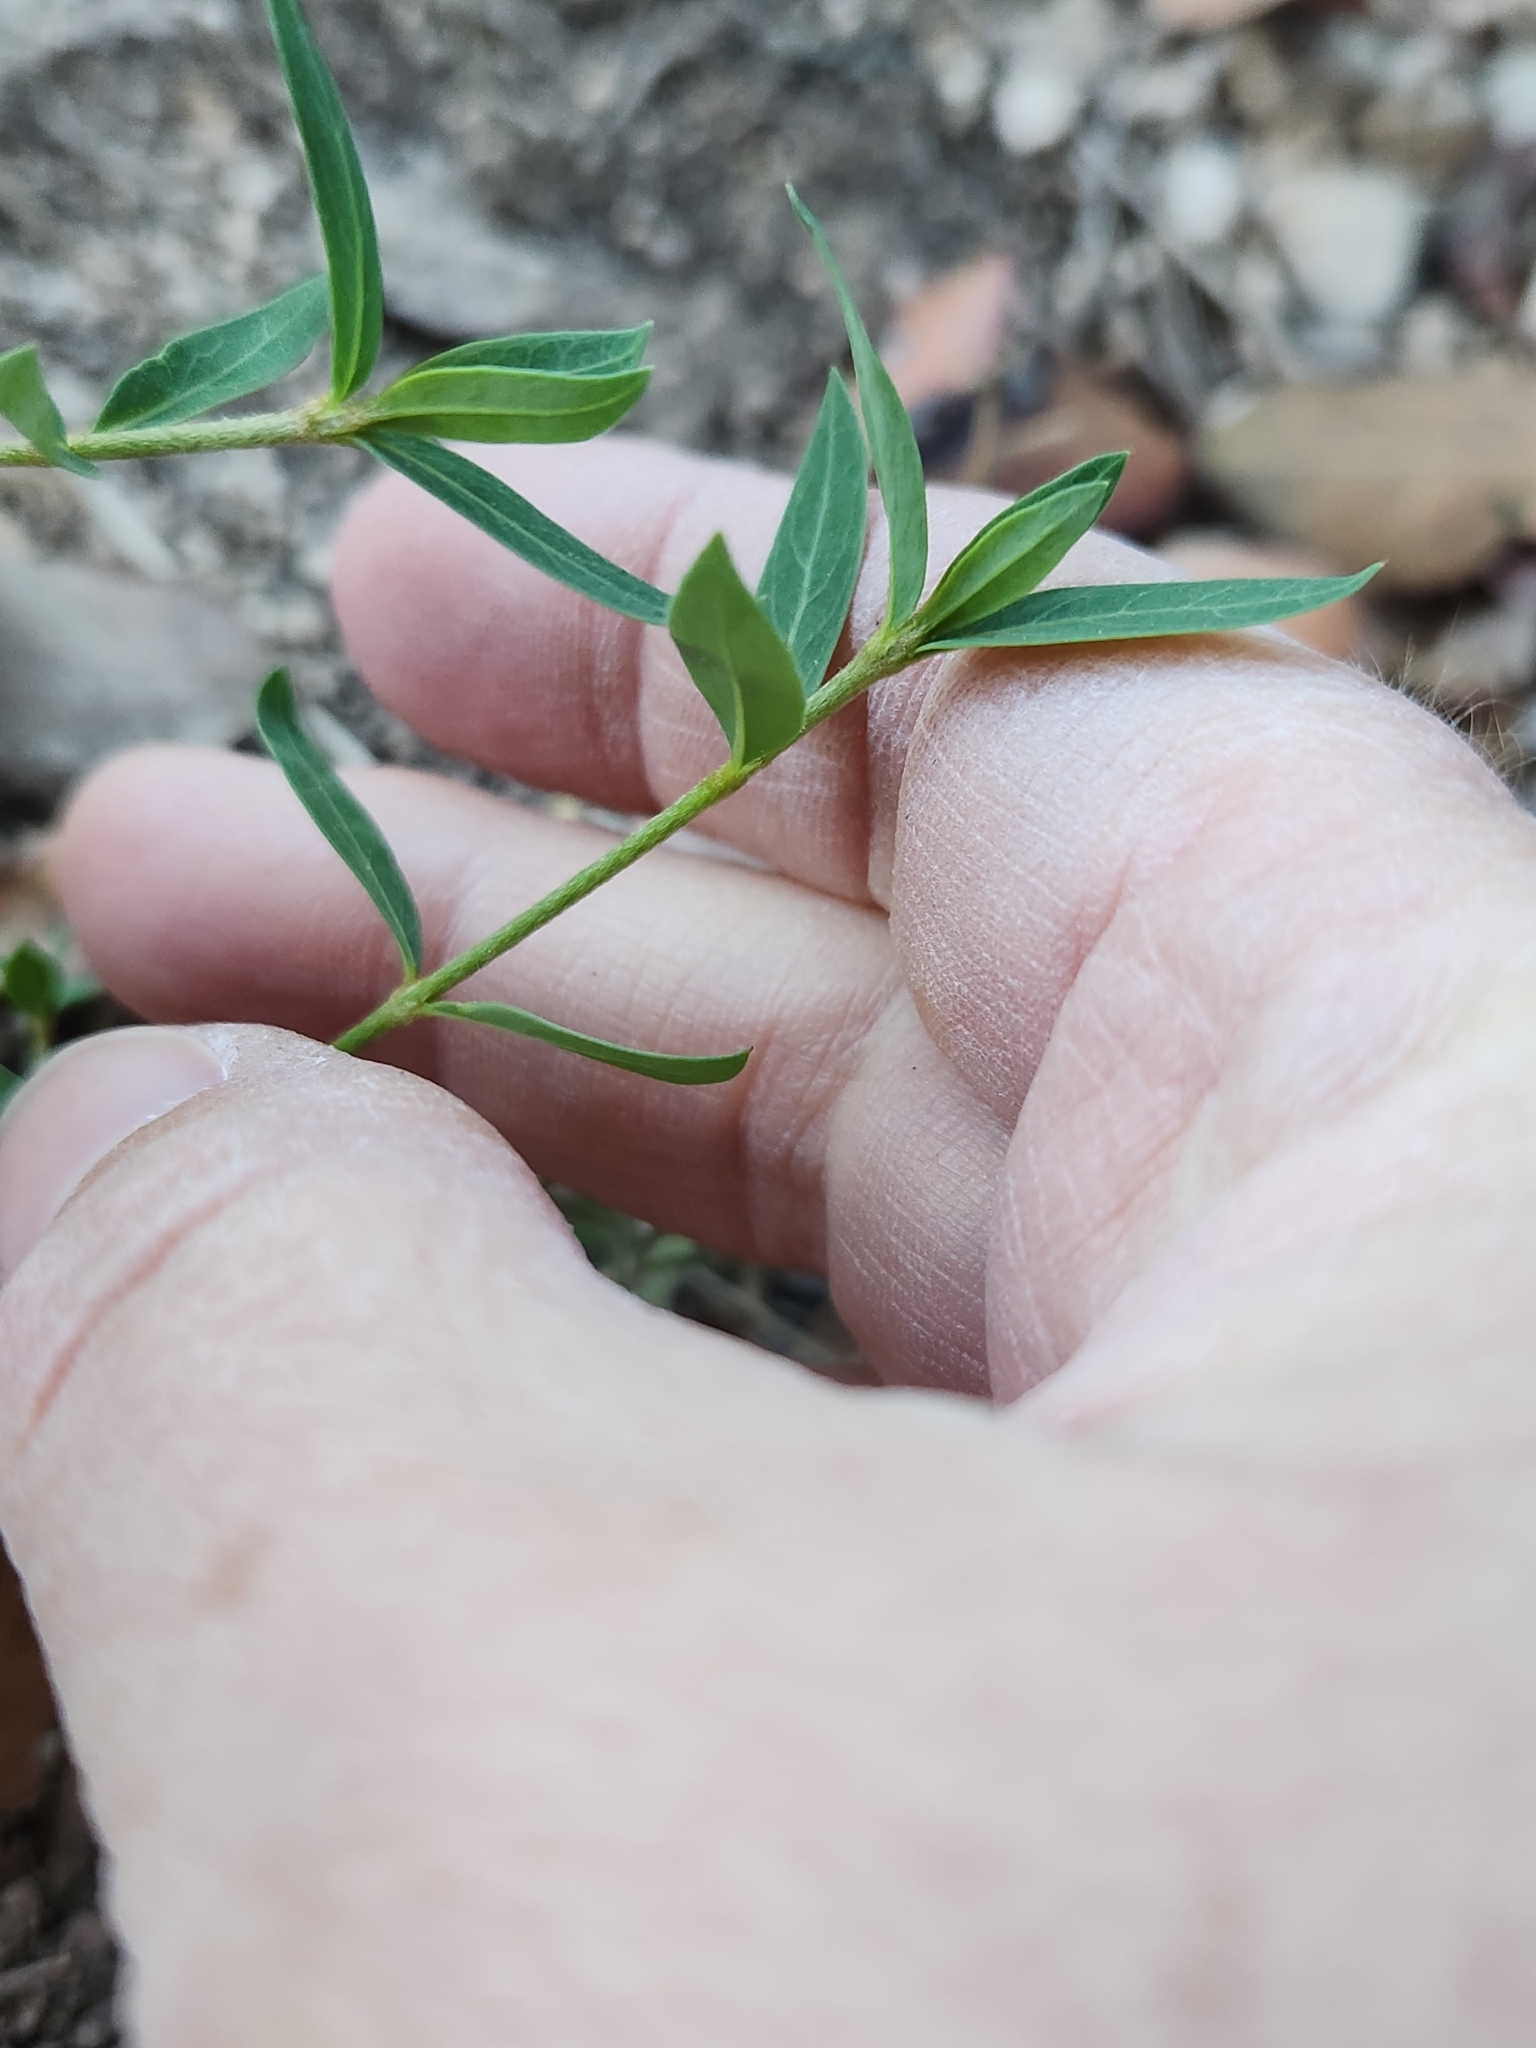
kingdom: Plantae
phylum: Tracheophyta
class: Magnoliopsida
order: Malpighiales
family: Malpighiaceae
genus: Galphimia
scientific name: Galphimia angustifolia
